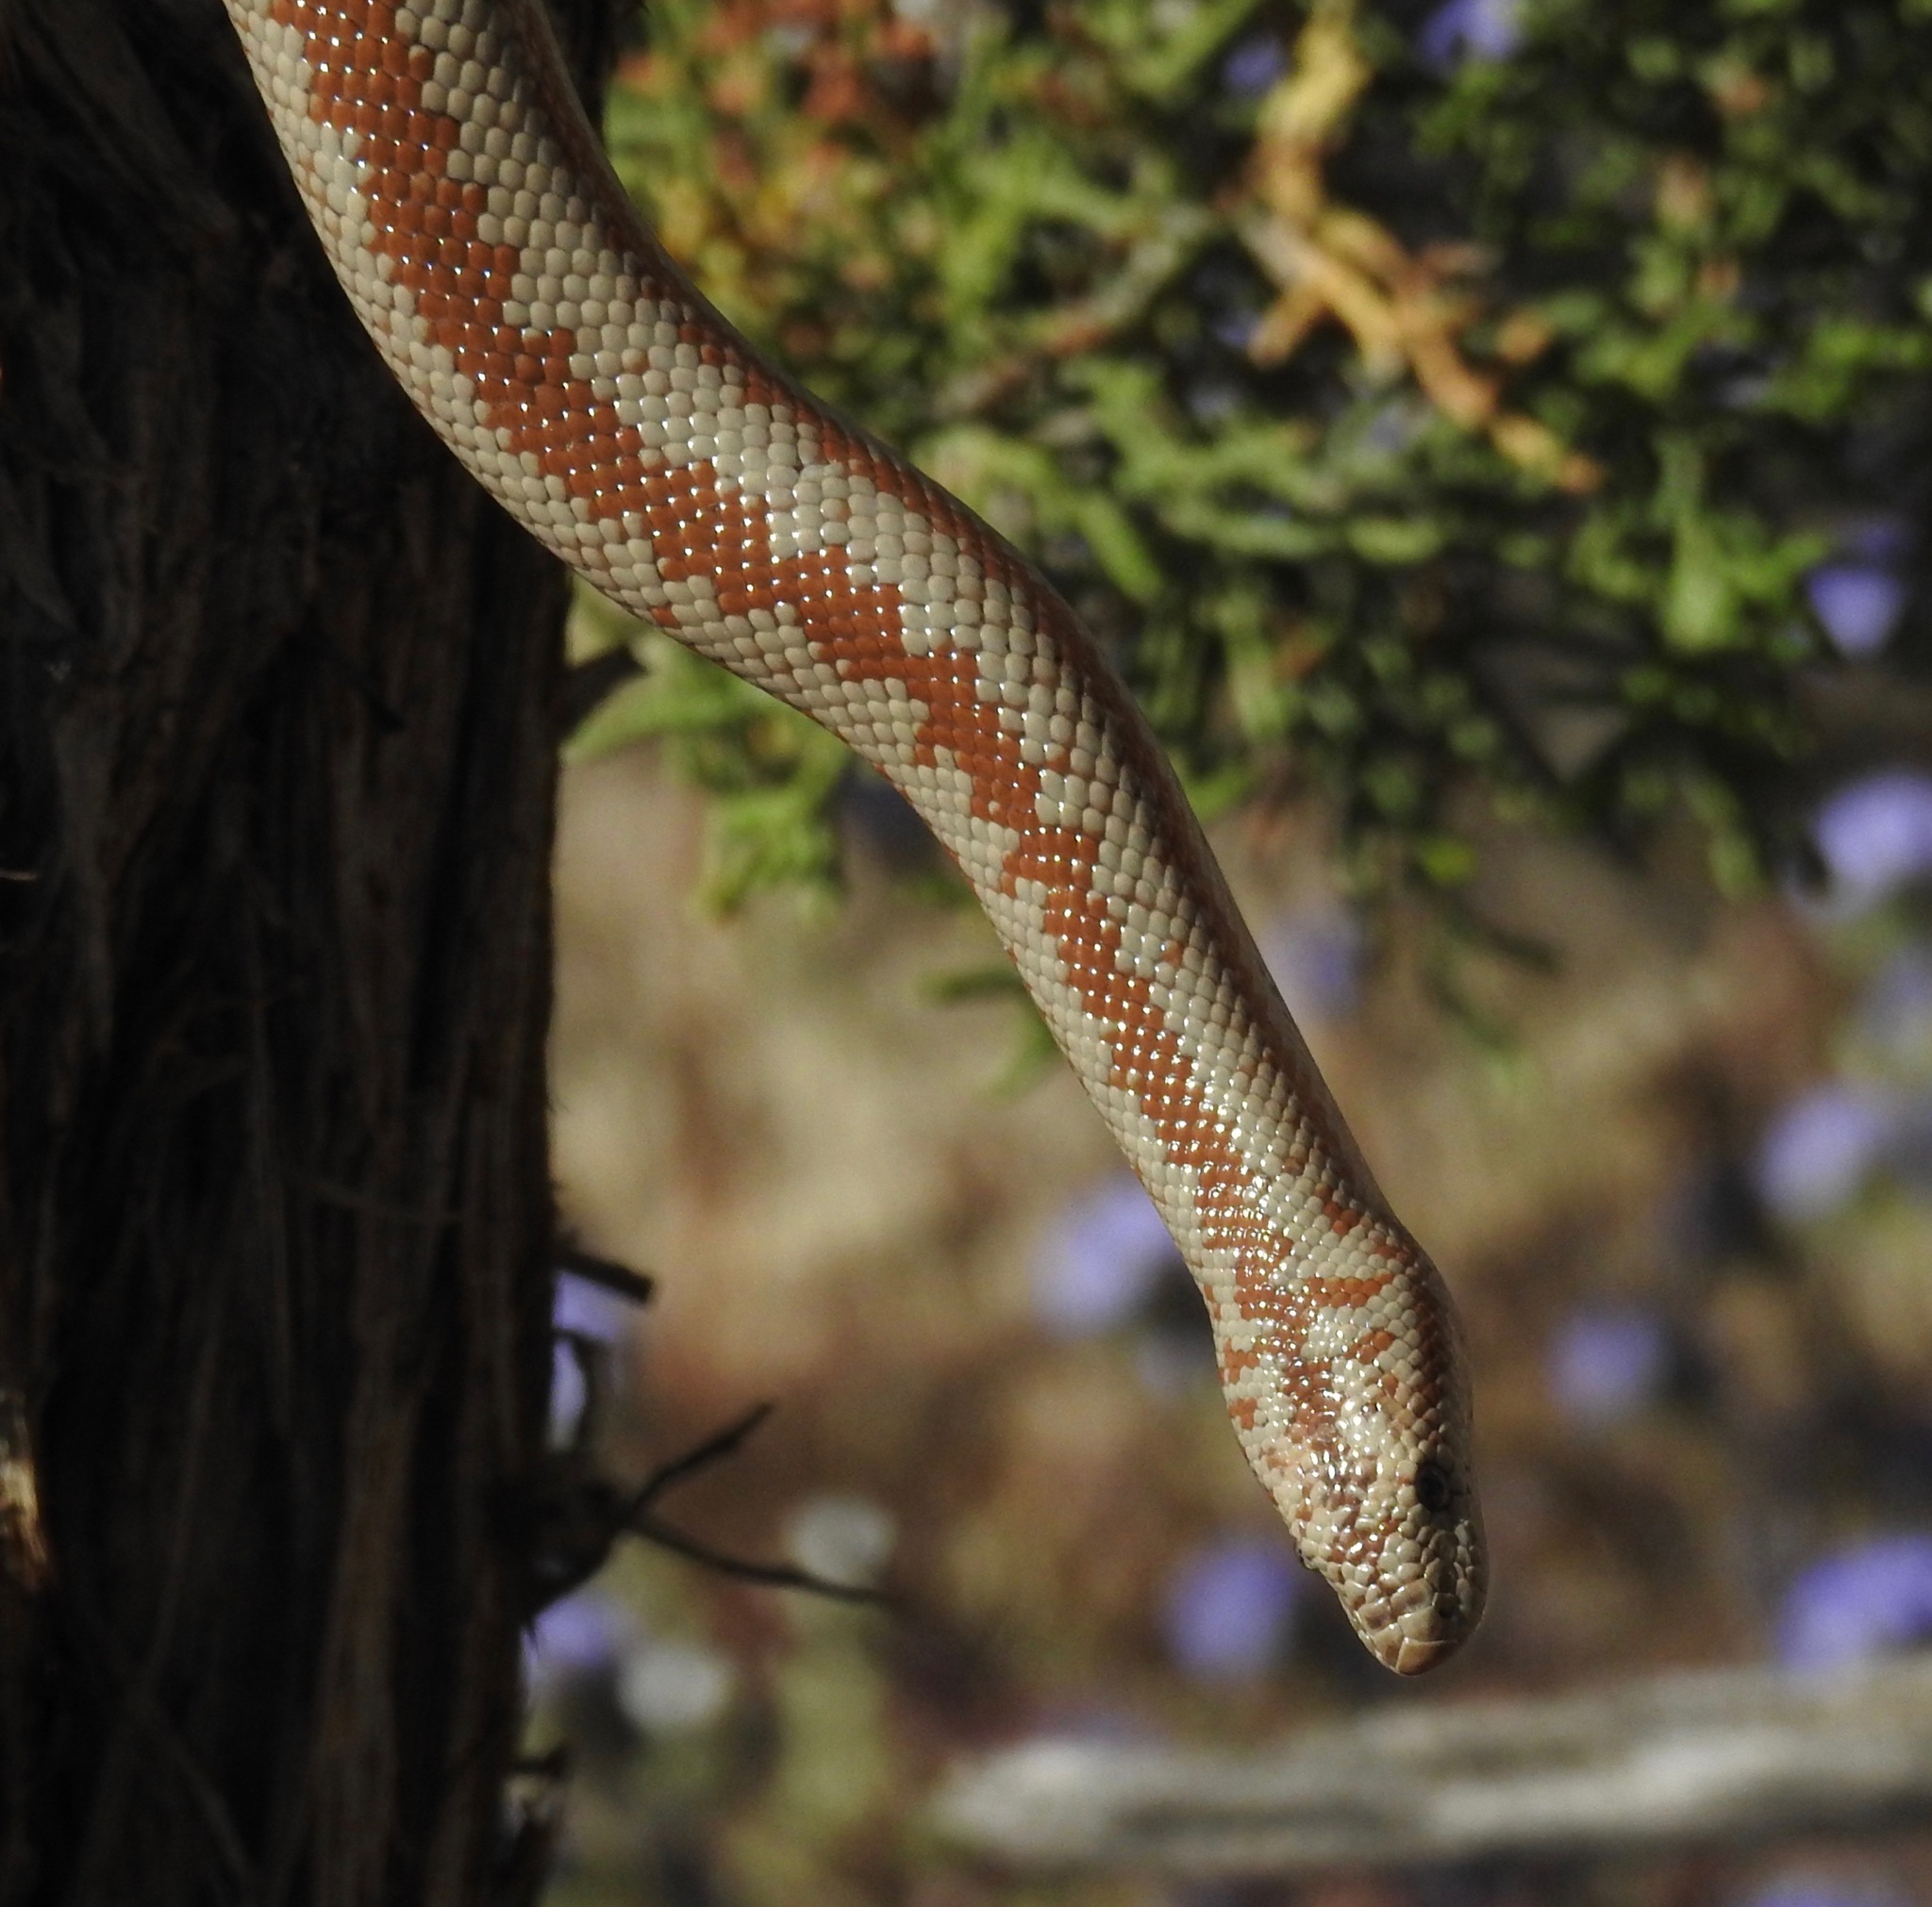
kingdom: Animalia
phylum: Chordata
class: Squamata
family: Boidae
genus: Lichanura
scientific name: Lichanura orcutti
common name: Northern three-lined boa
